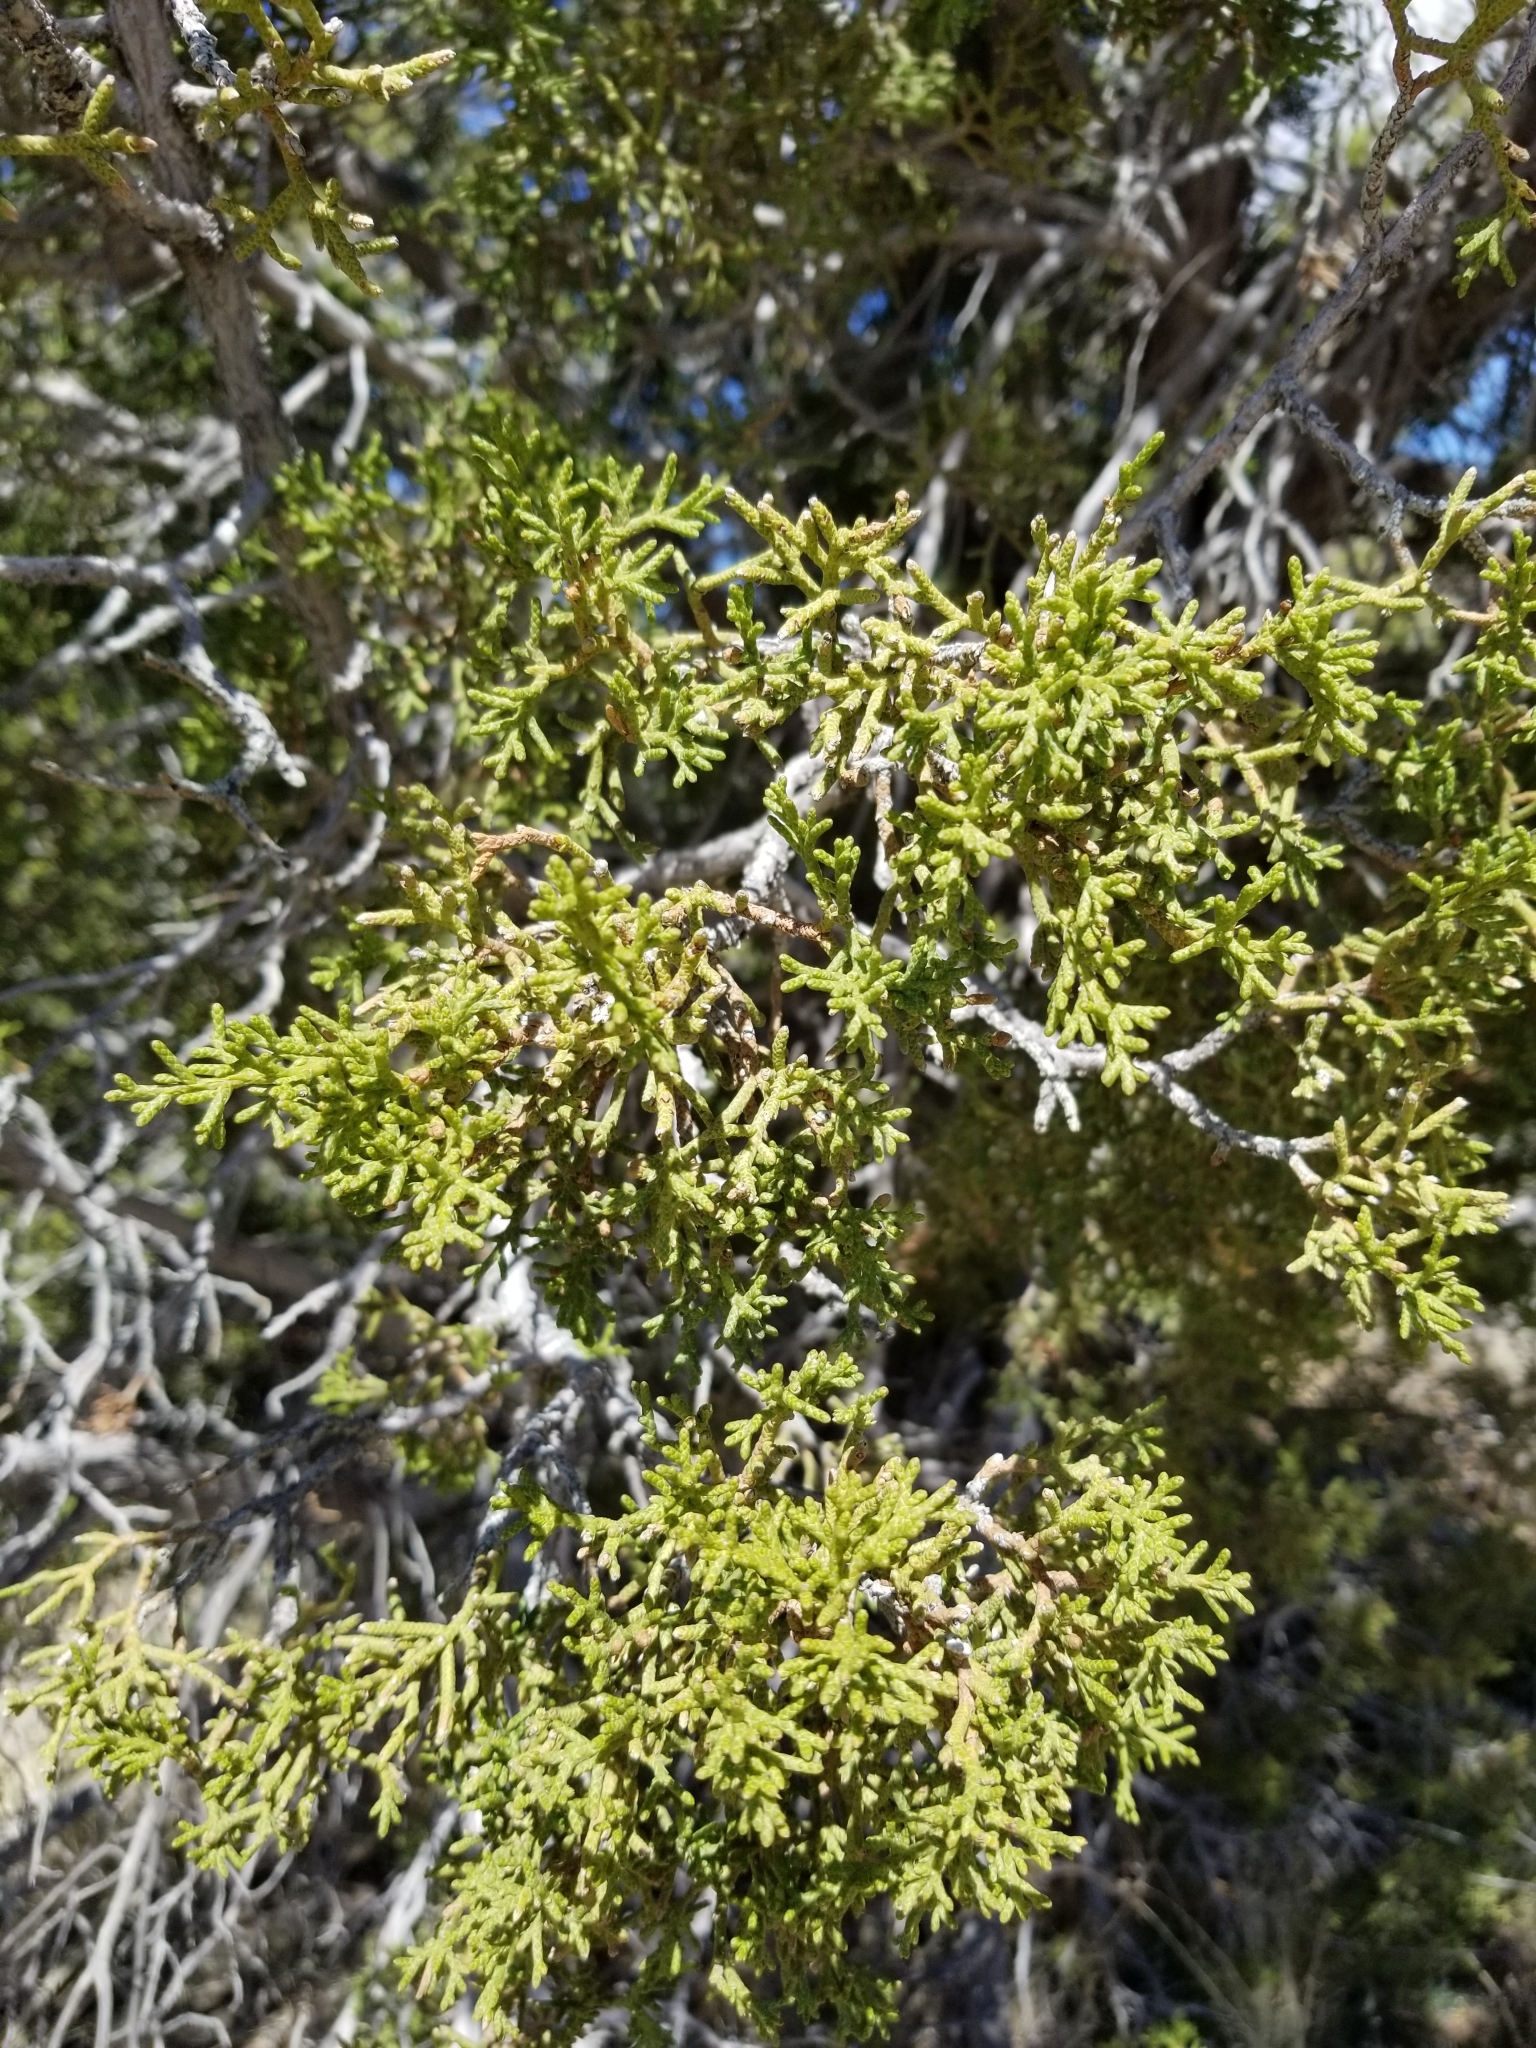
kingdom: Plantae
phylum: Tracheophyta
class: Pinopsida
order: Pinales
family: Cupressaceae
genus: Juniperus
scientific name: Juniperus californica
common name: California juniper
